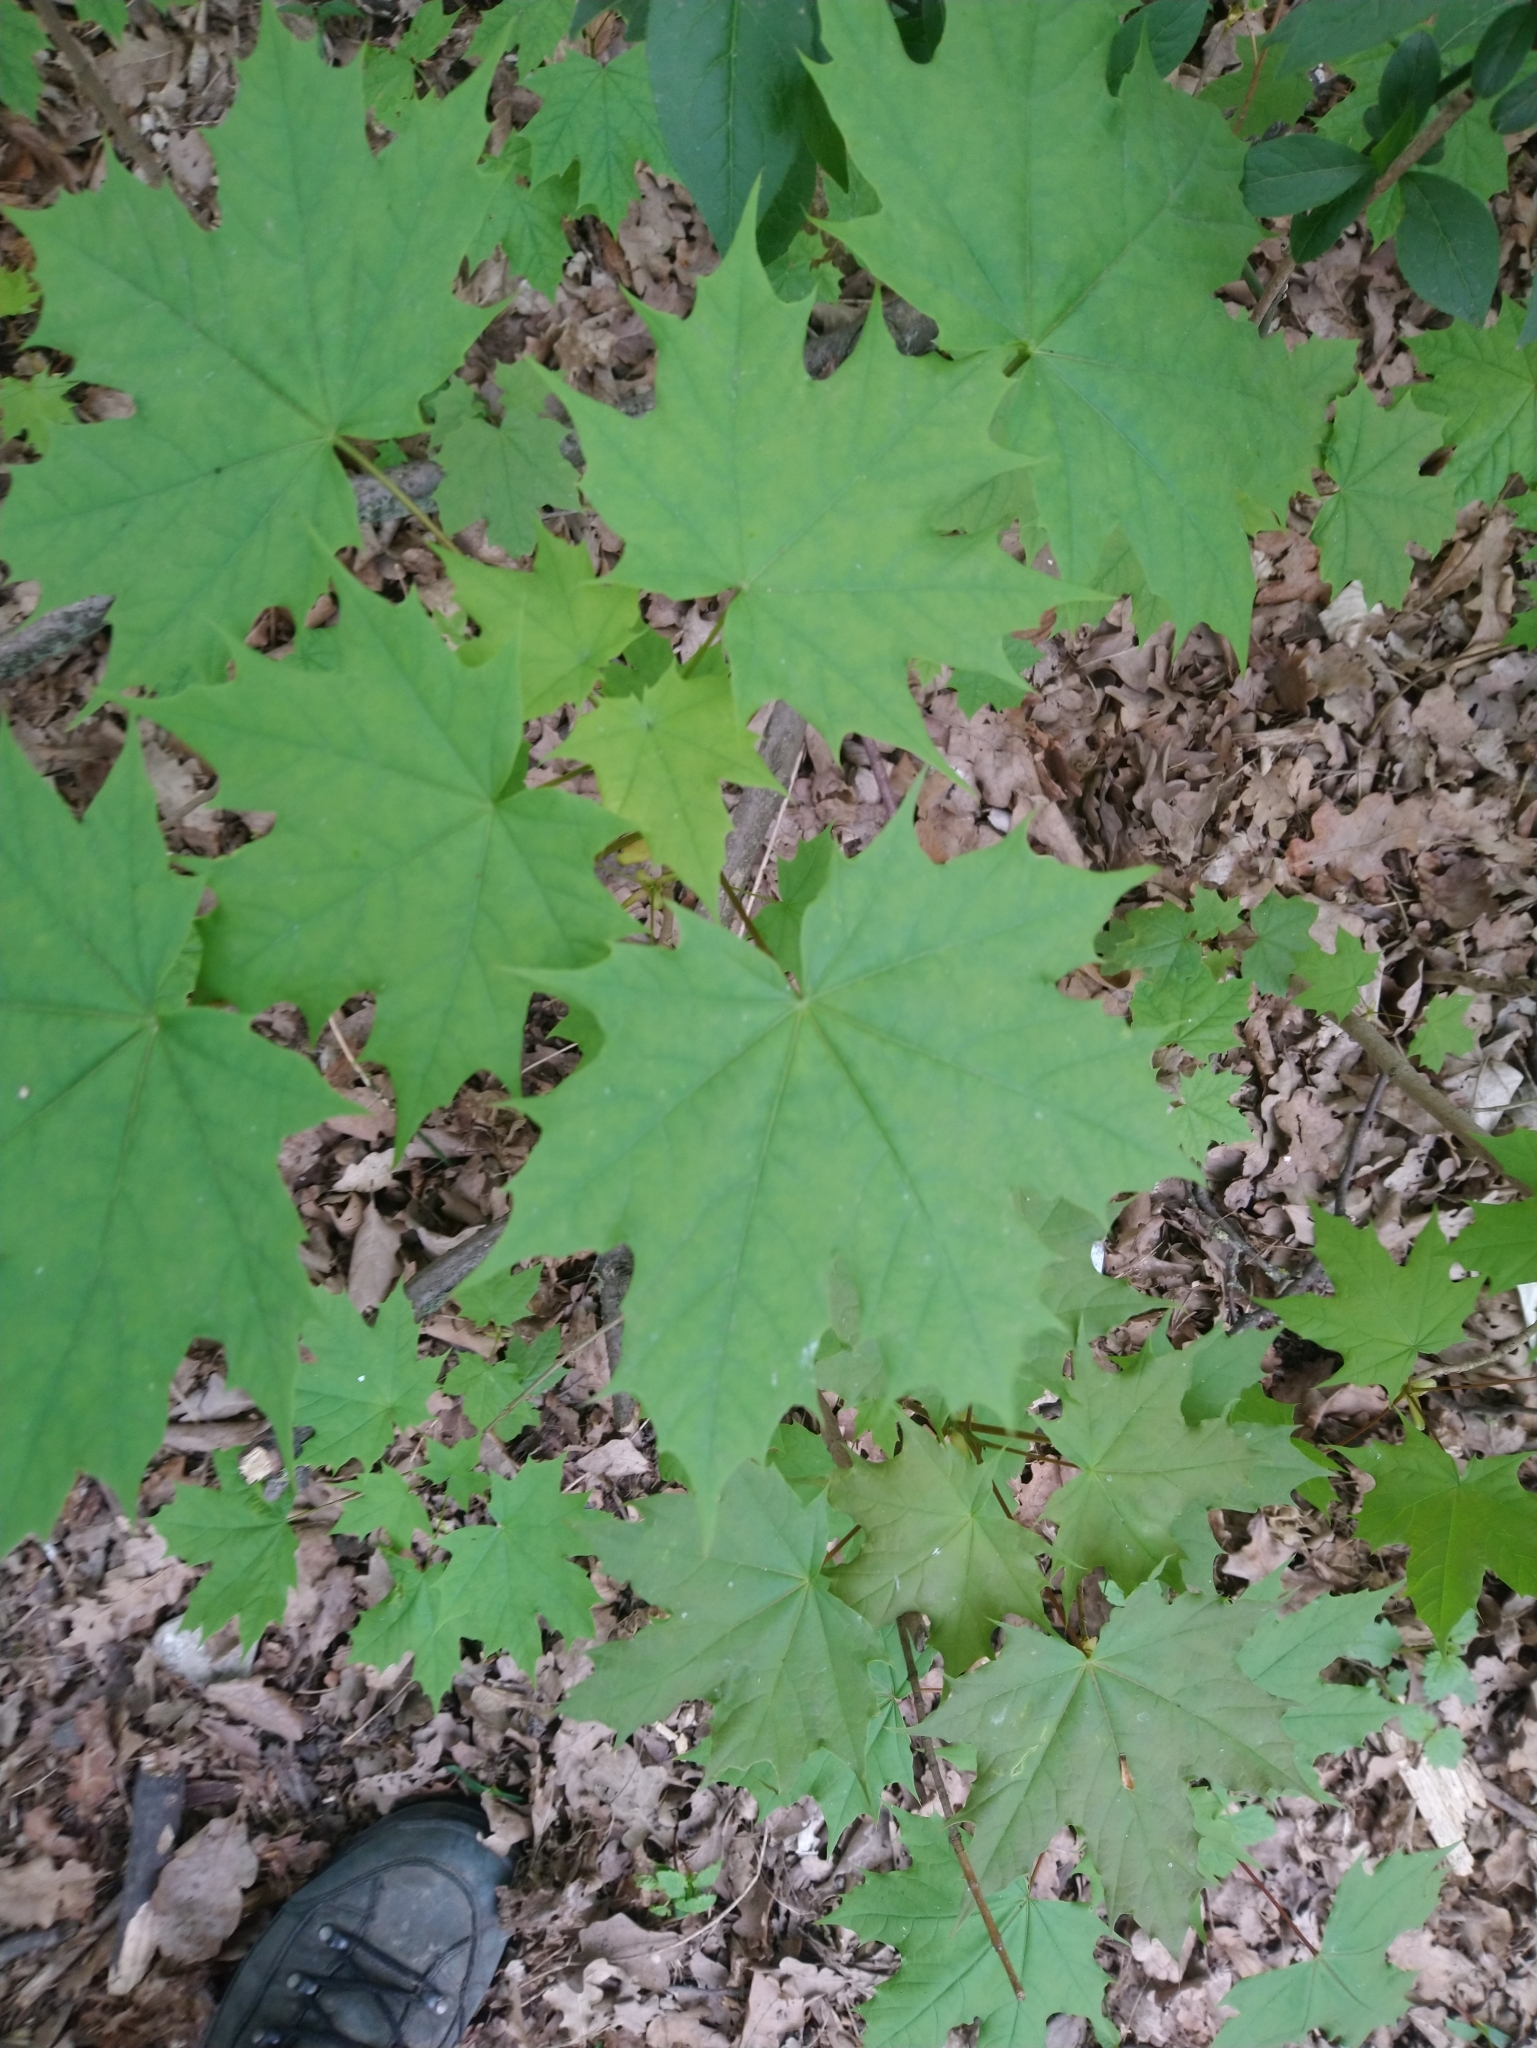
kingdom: Plantae
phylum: Tracheophyta
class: Magnoliopsida
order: Sapindales
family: Sapindaceae
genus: Acer
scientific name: Acer platanoides
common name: Norway maple
